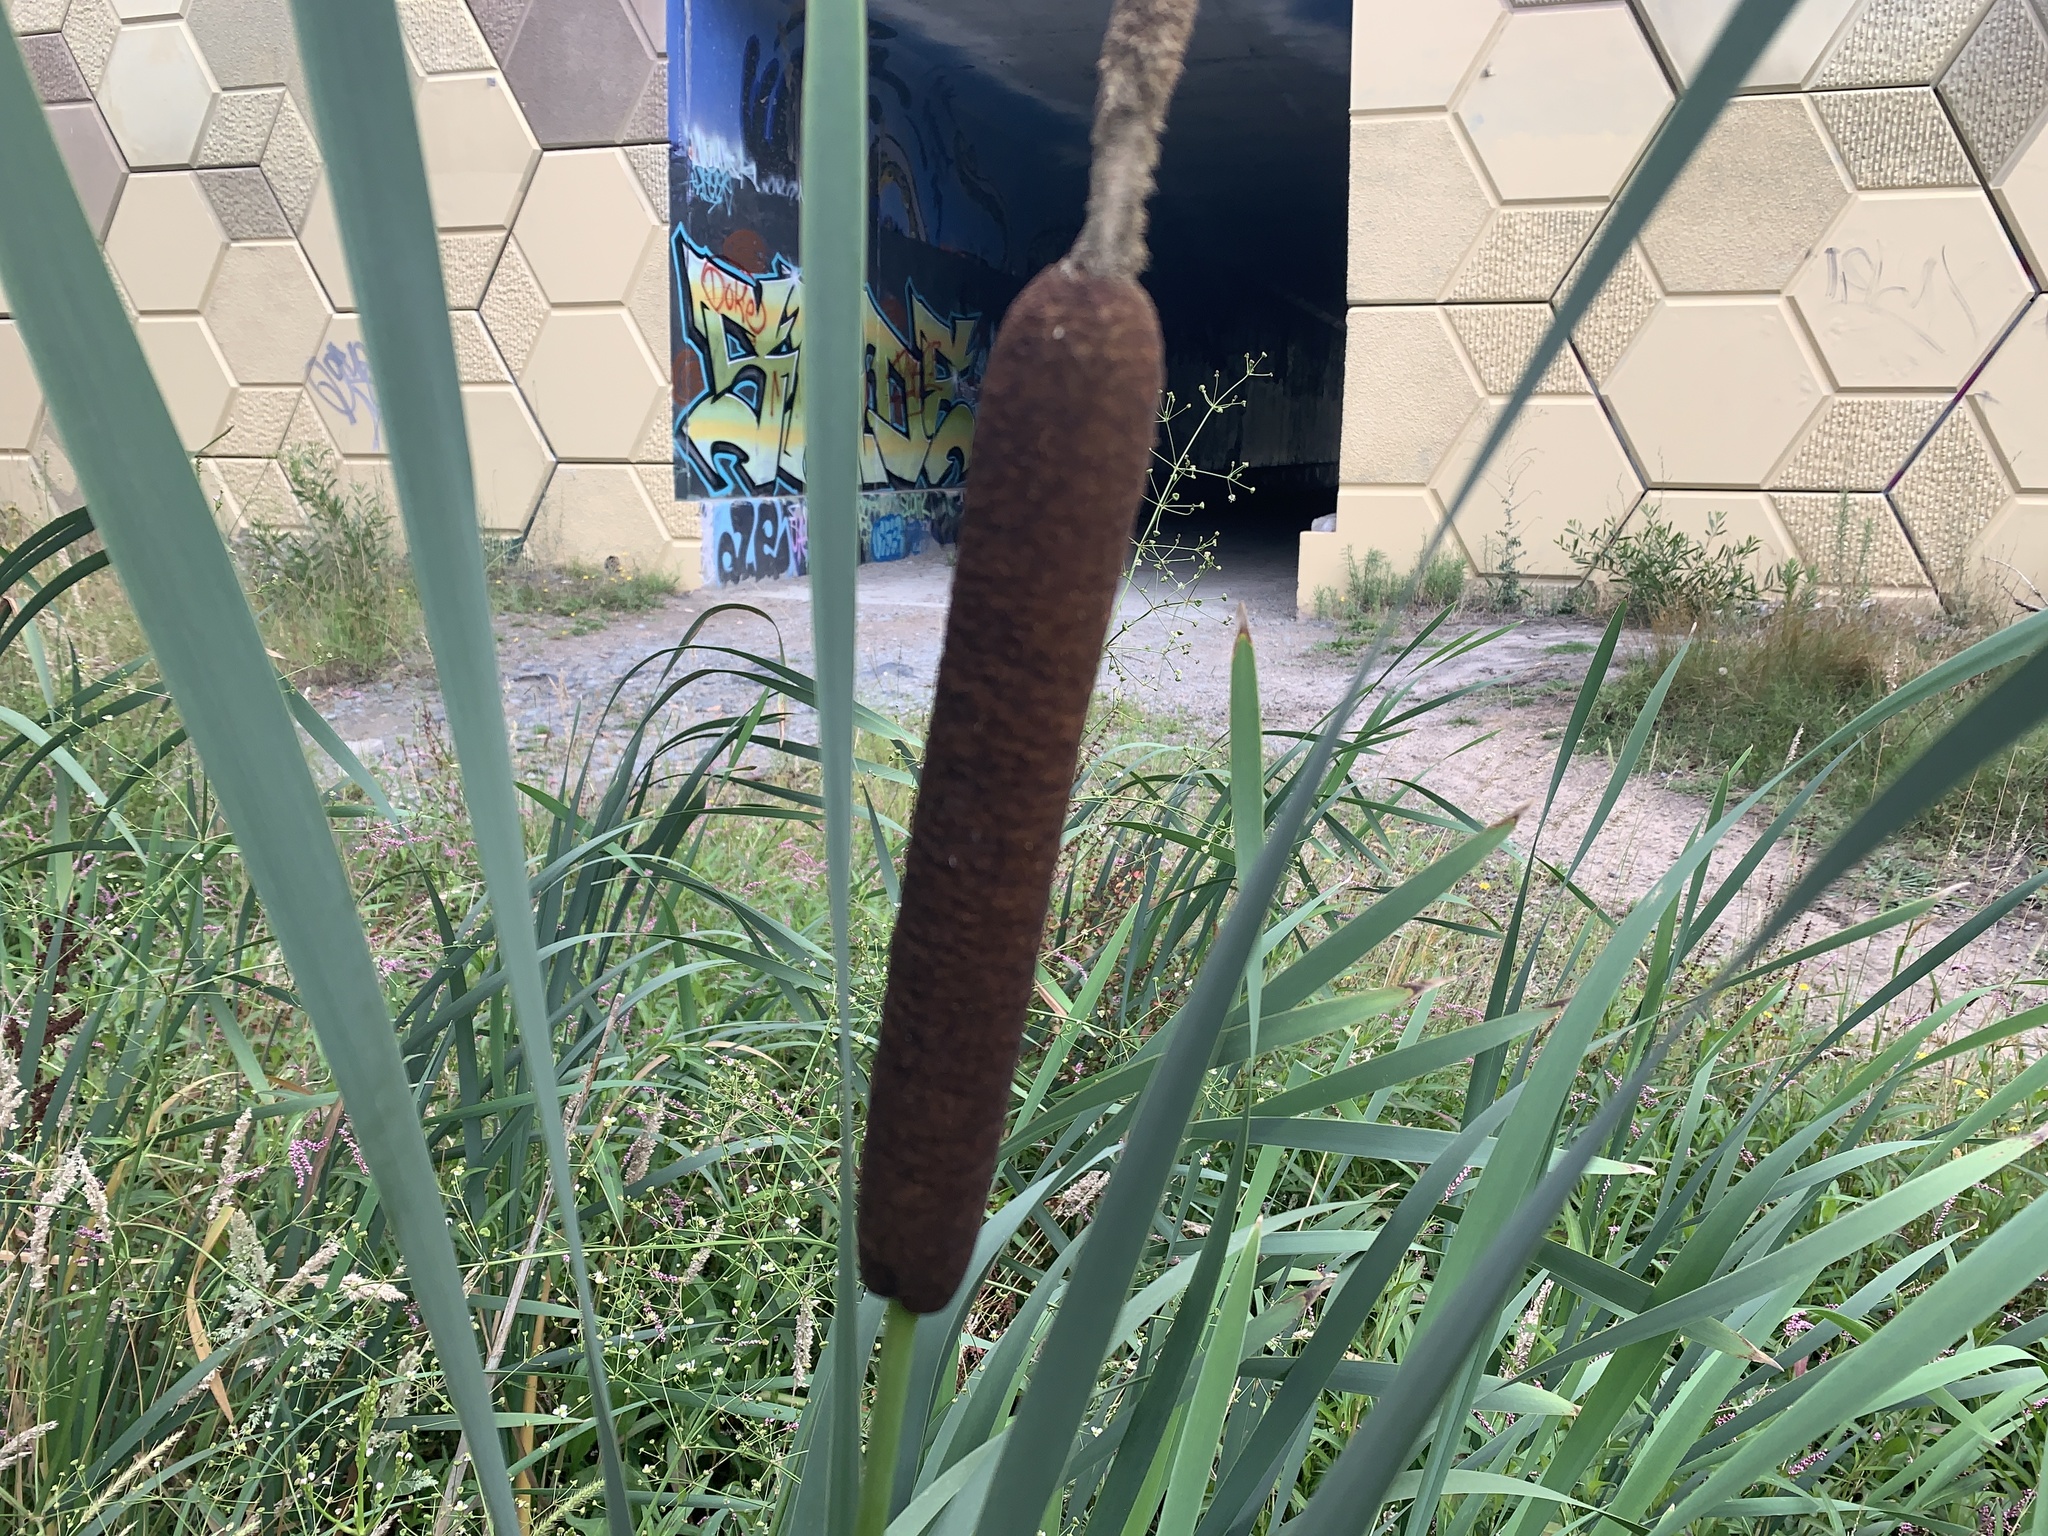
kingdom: Plantae
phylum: Tracheophyta
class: Liliopsida
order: Poales
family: Typhaceae
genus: Typha
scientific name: Typha latifolia
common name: Broadleaf cattail
